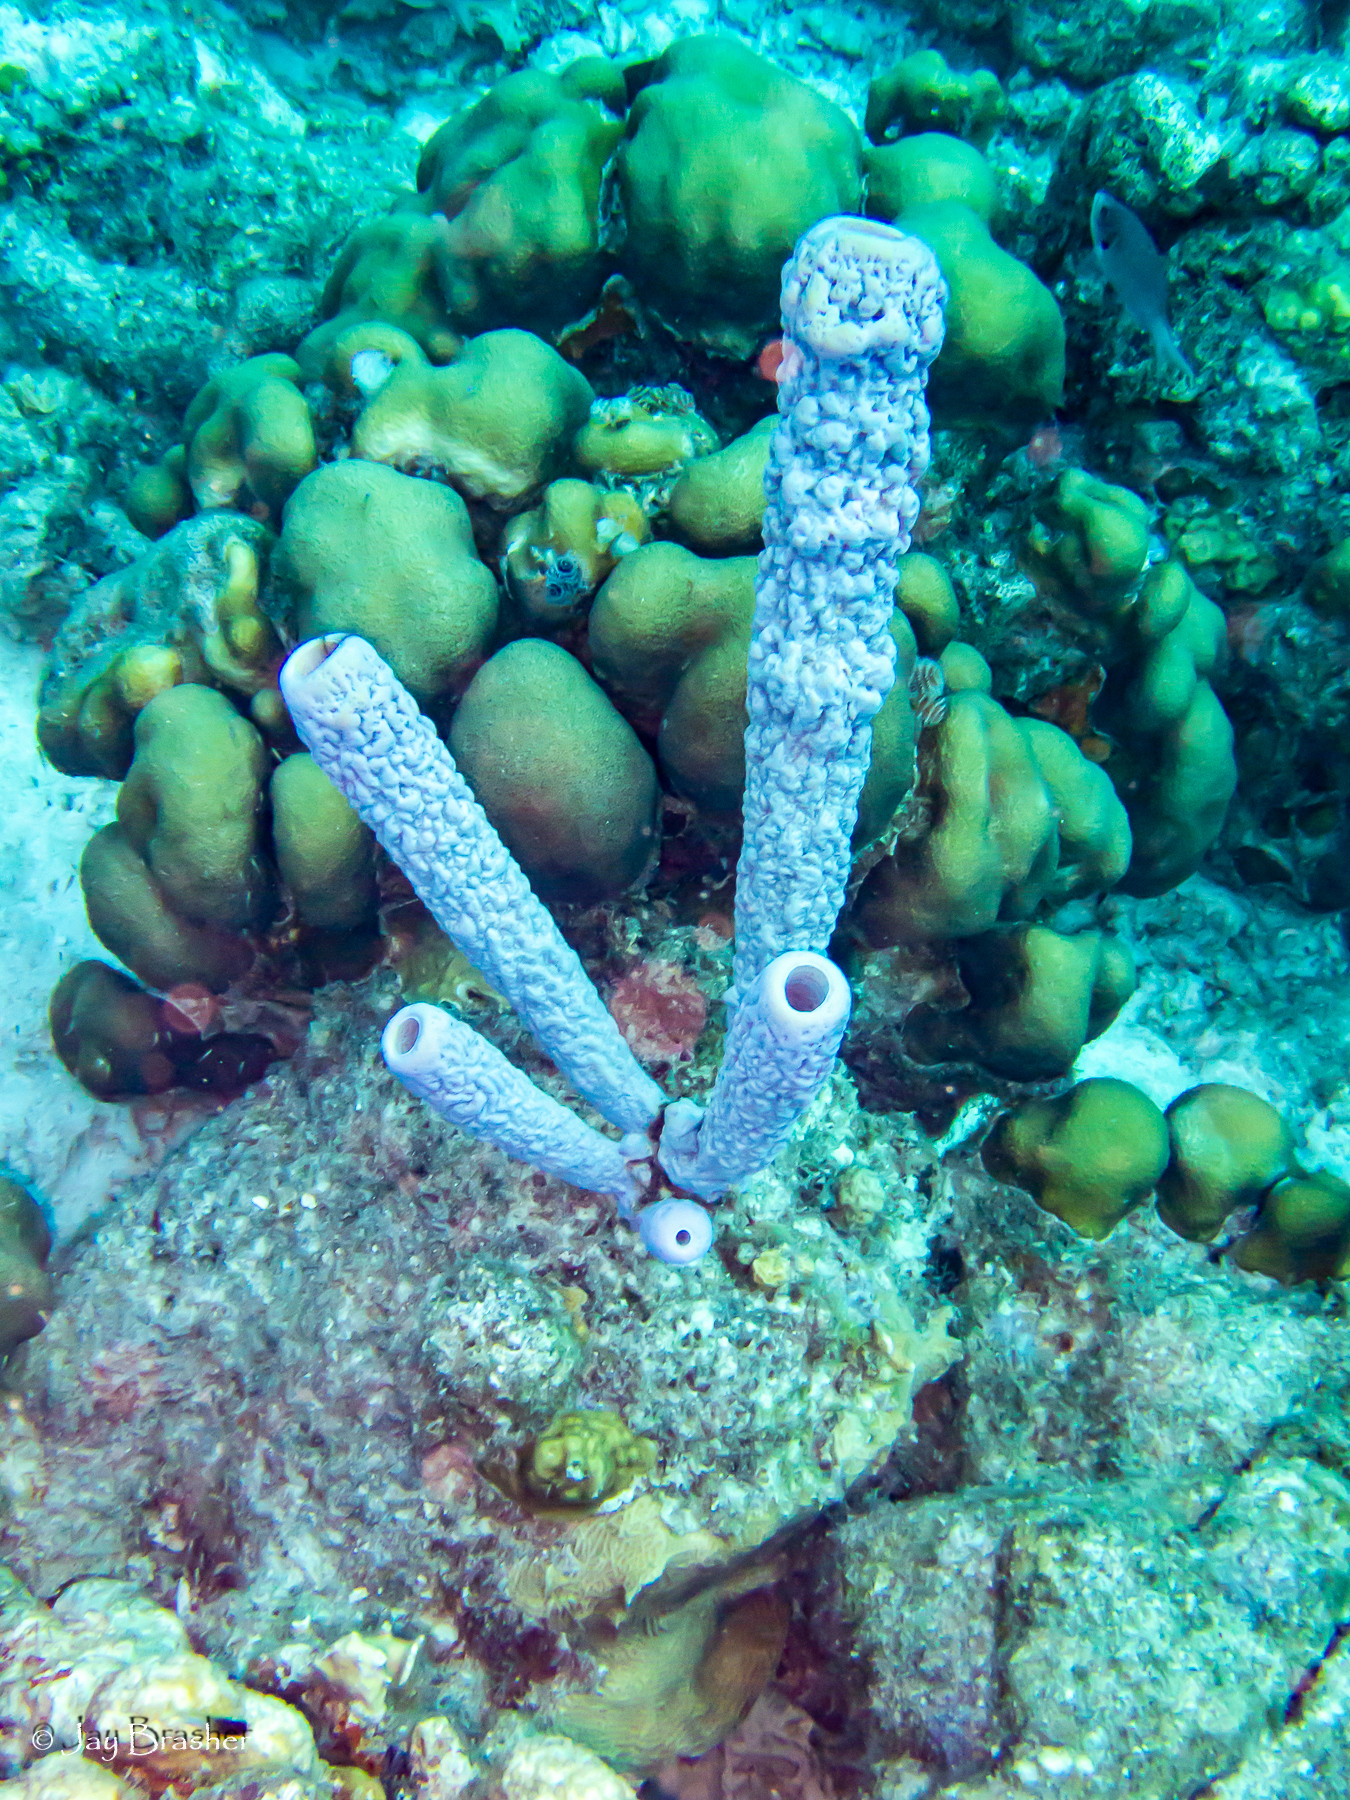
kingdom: Animalia
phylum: Cnidaria
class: Anthozoa
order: Scleractinia
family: Merulinidae
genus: Orbicella
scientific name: Orbicella annularis
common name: Boulder star coral
